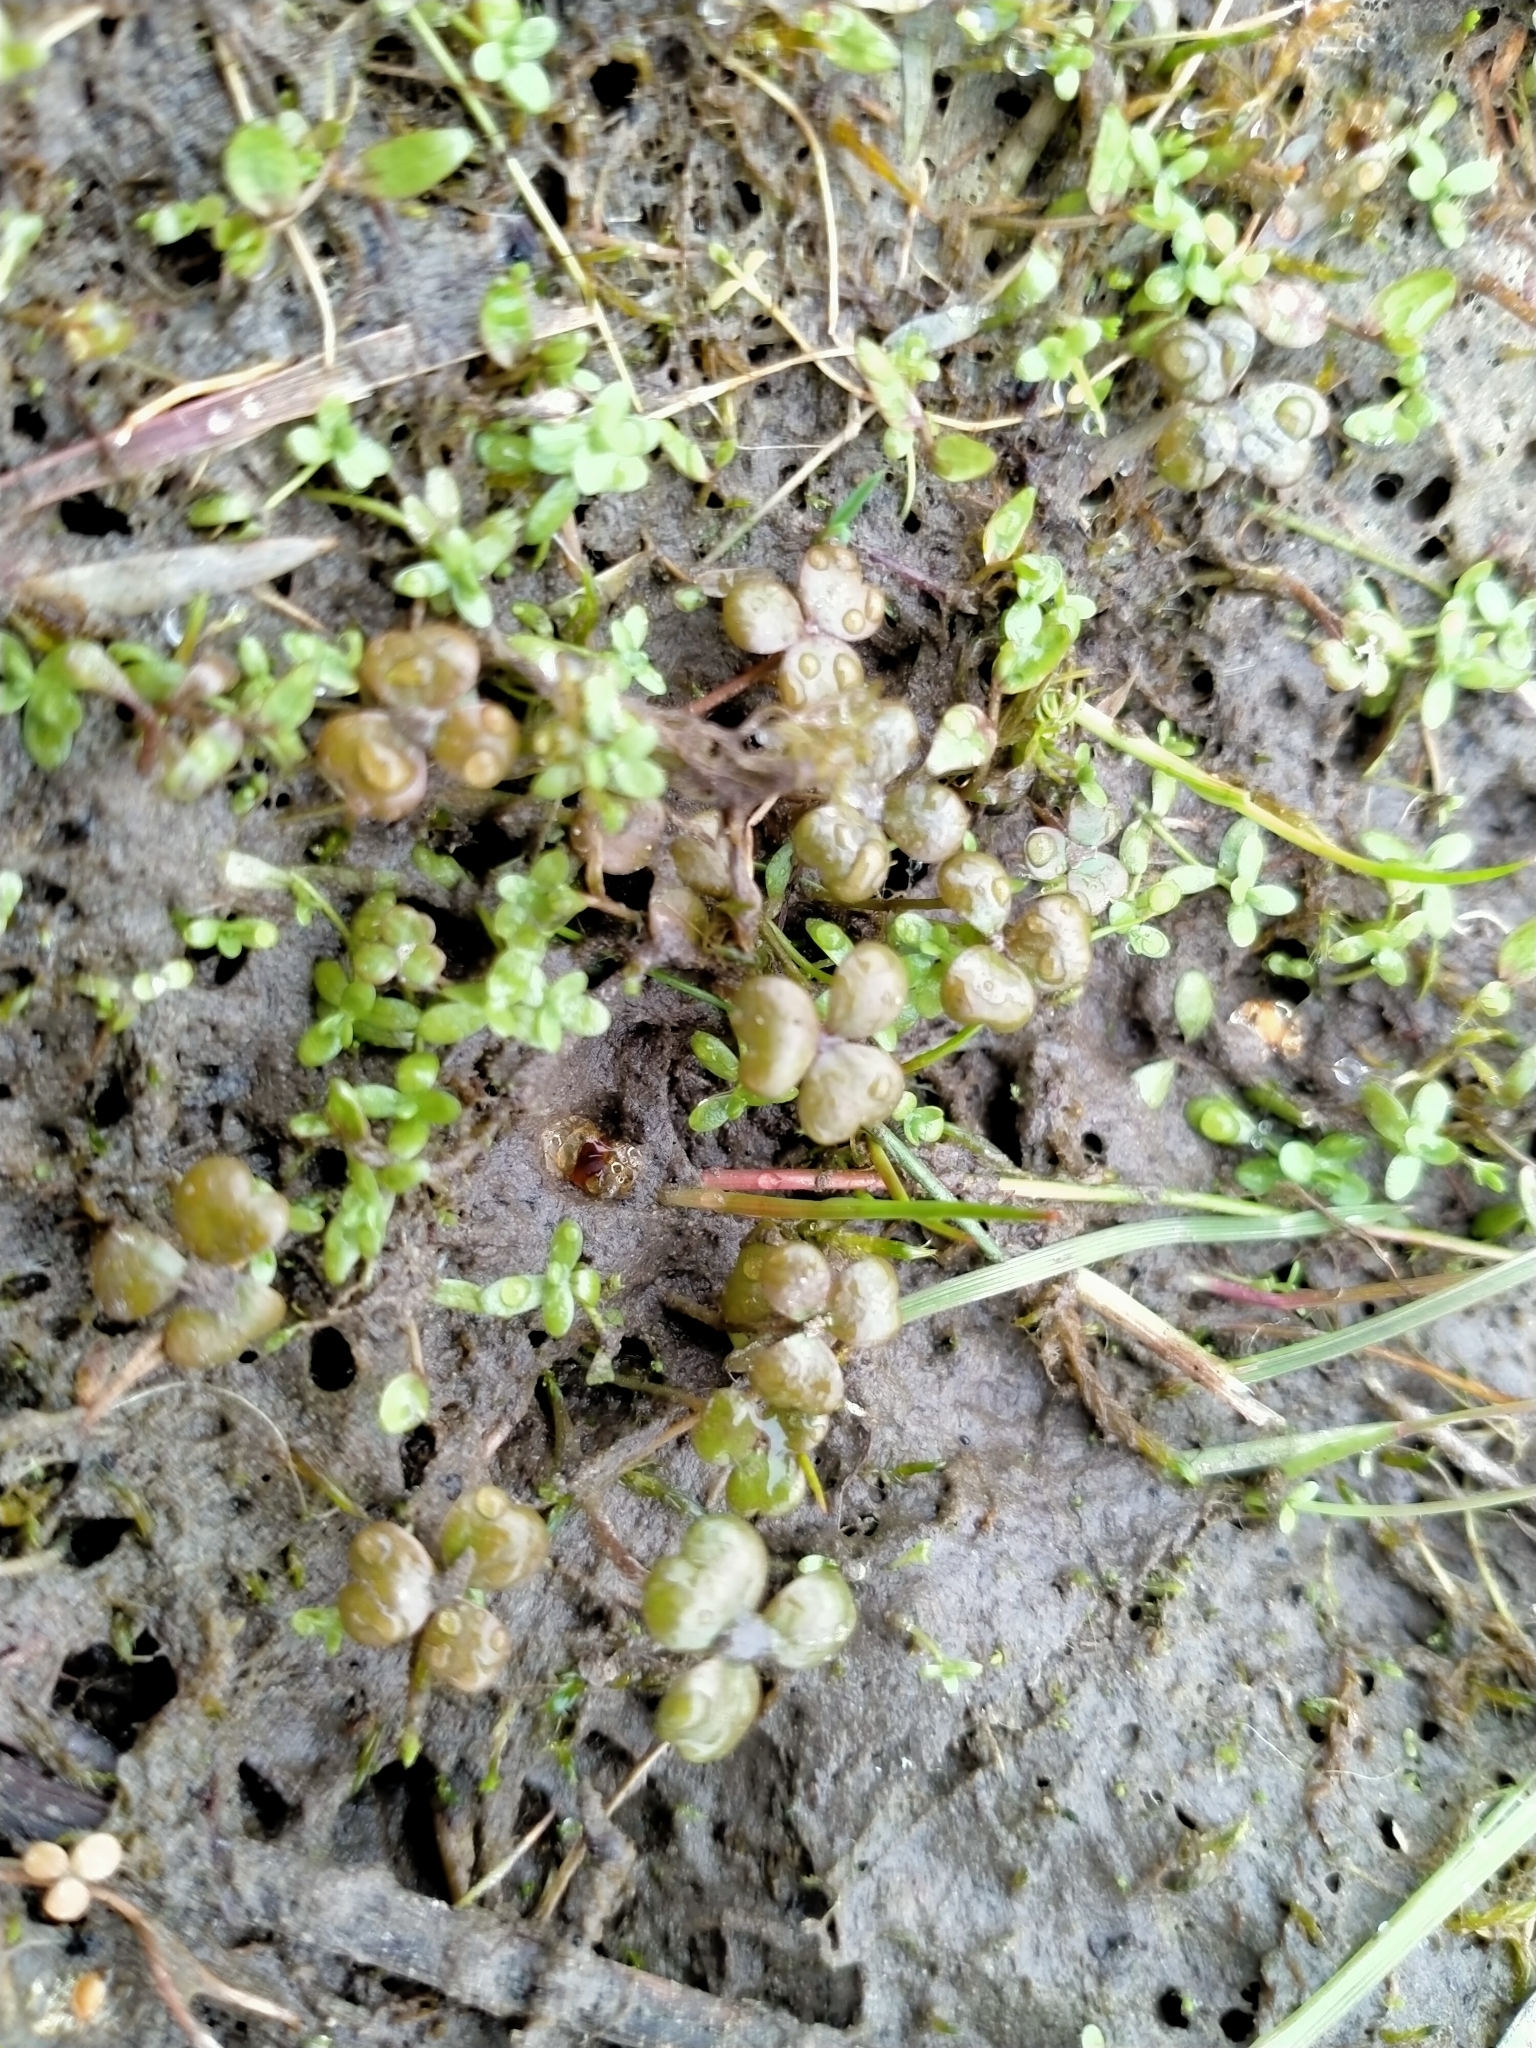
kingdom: Plantae
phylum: Tracheophyta
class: Magnoliopsida
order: Apiales
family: Araliaceae
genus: Hydrocotyle
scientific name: Hydrocotyle sulcata
